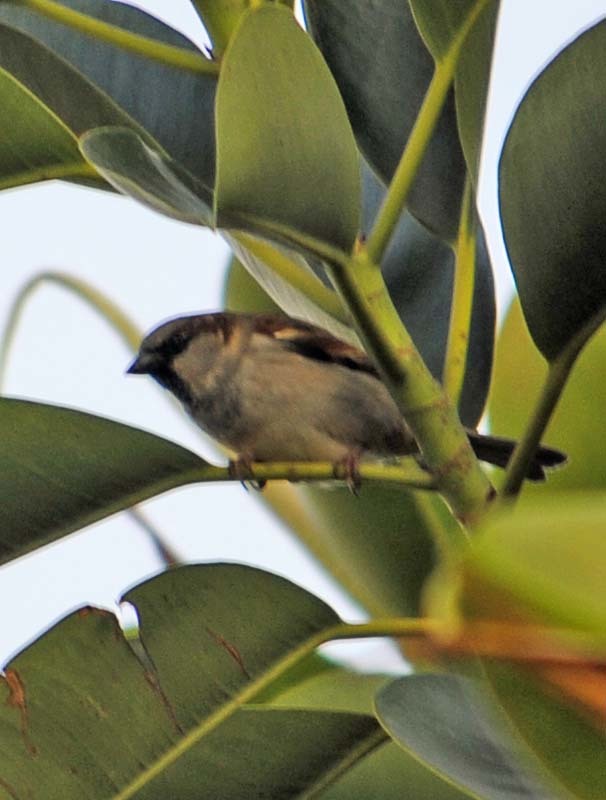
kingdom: Animalia
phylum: Chordata
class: Aves
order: Passeriformes
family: Passeridae
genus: Passer
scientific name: Passer domesticus
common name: House sparrow
